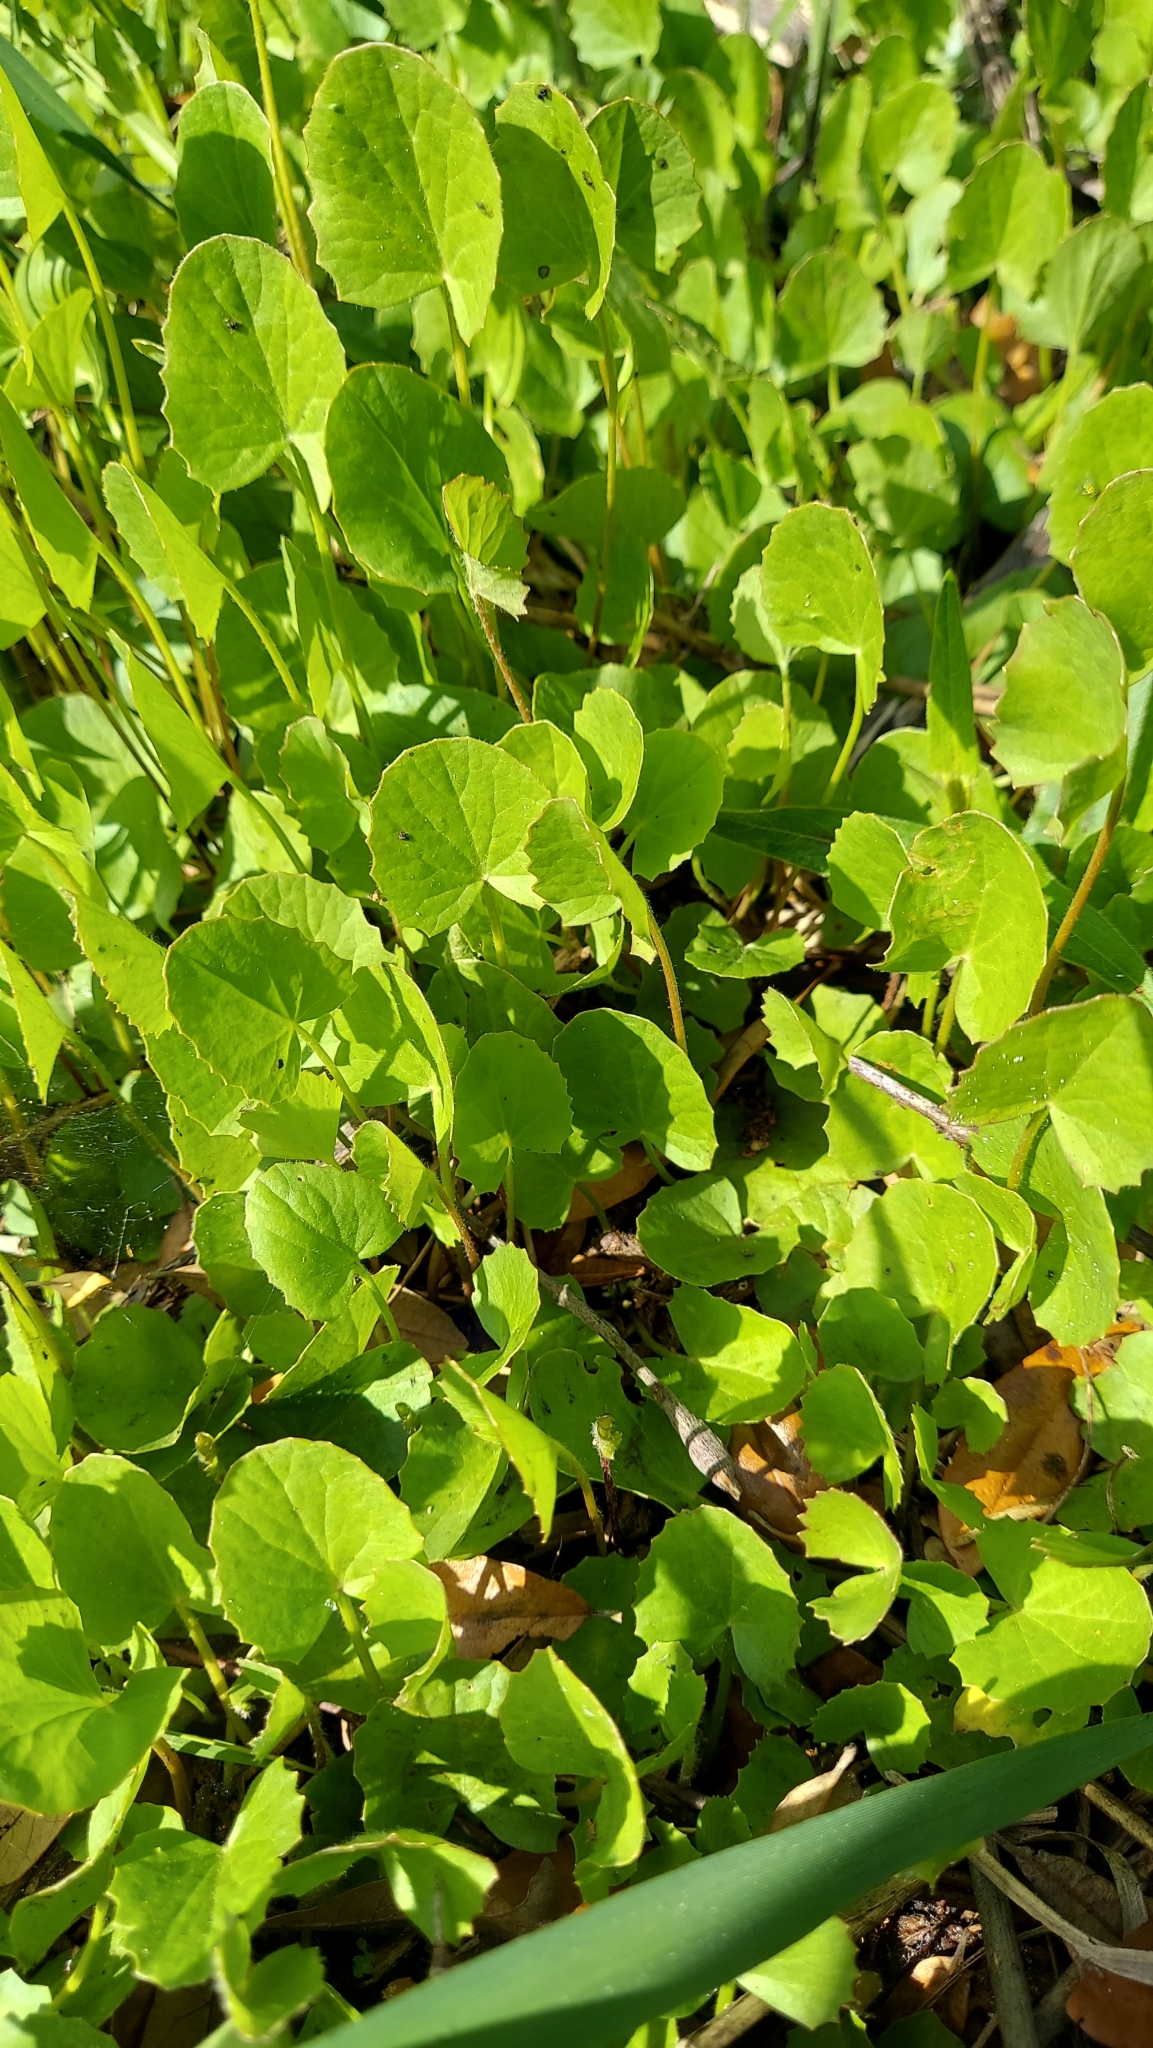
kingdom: Plantae
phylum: Tracheophyta
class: Magnoliopsida
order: Apiales
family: Apiaceae
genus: Centella
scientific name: Centella erecta
